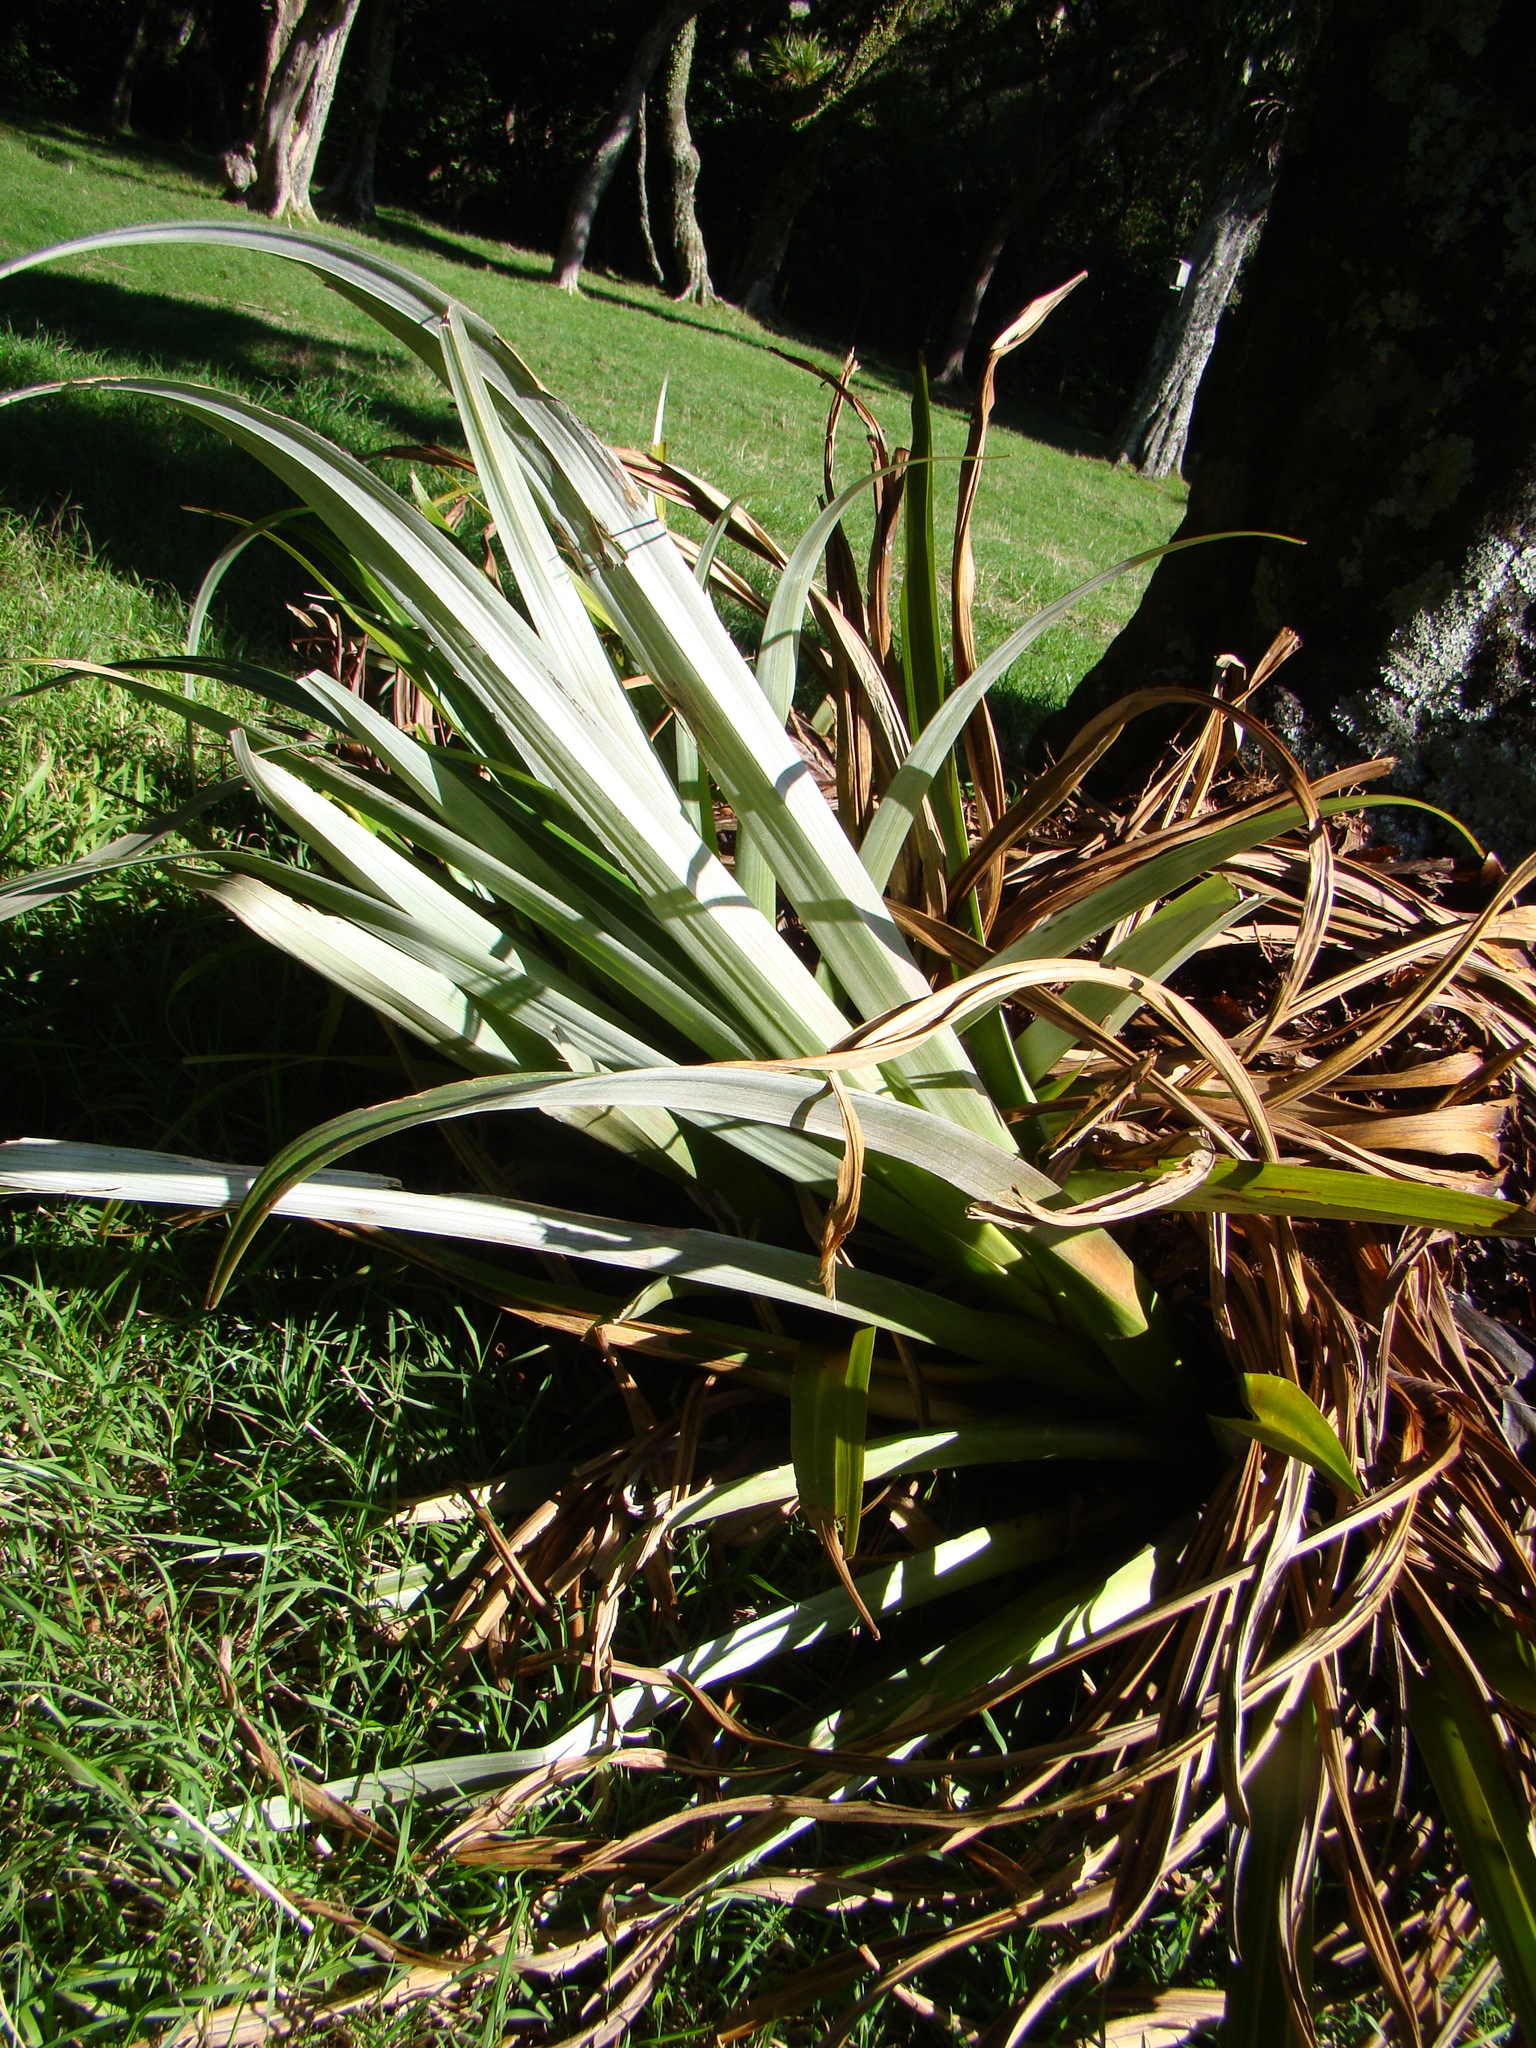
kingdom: Plantae
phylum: Tracheophyta
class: Liliopsida
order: Asparagales
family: Asteliaceae
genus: Astelia
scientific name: Astelia hastata
